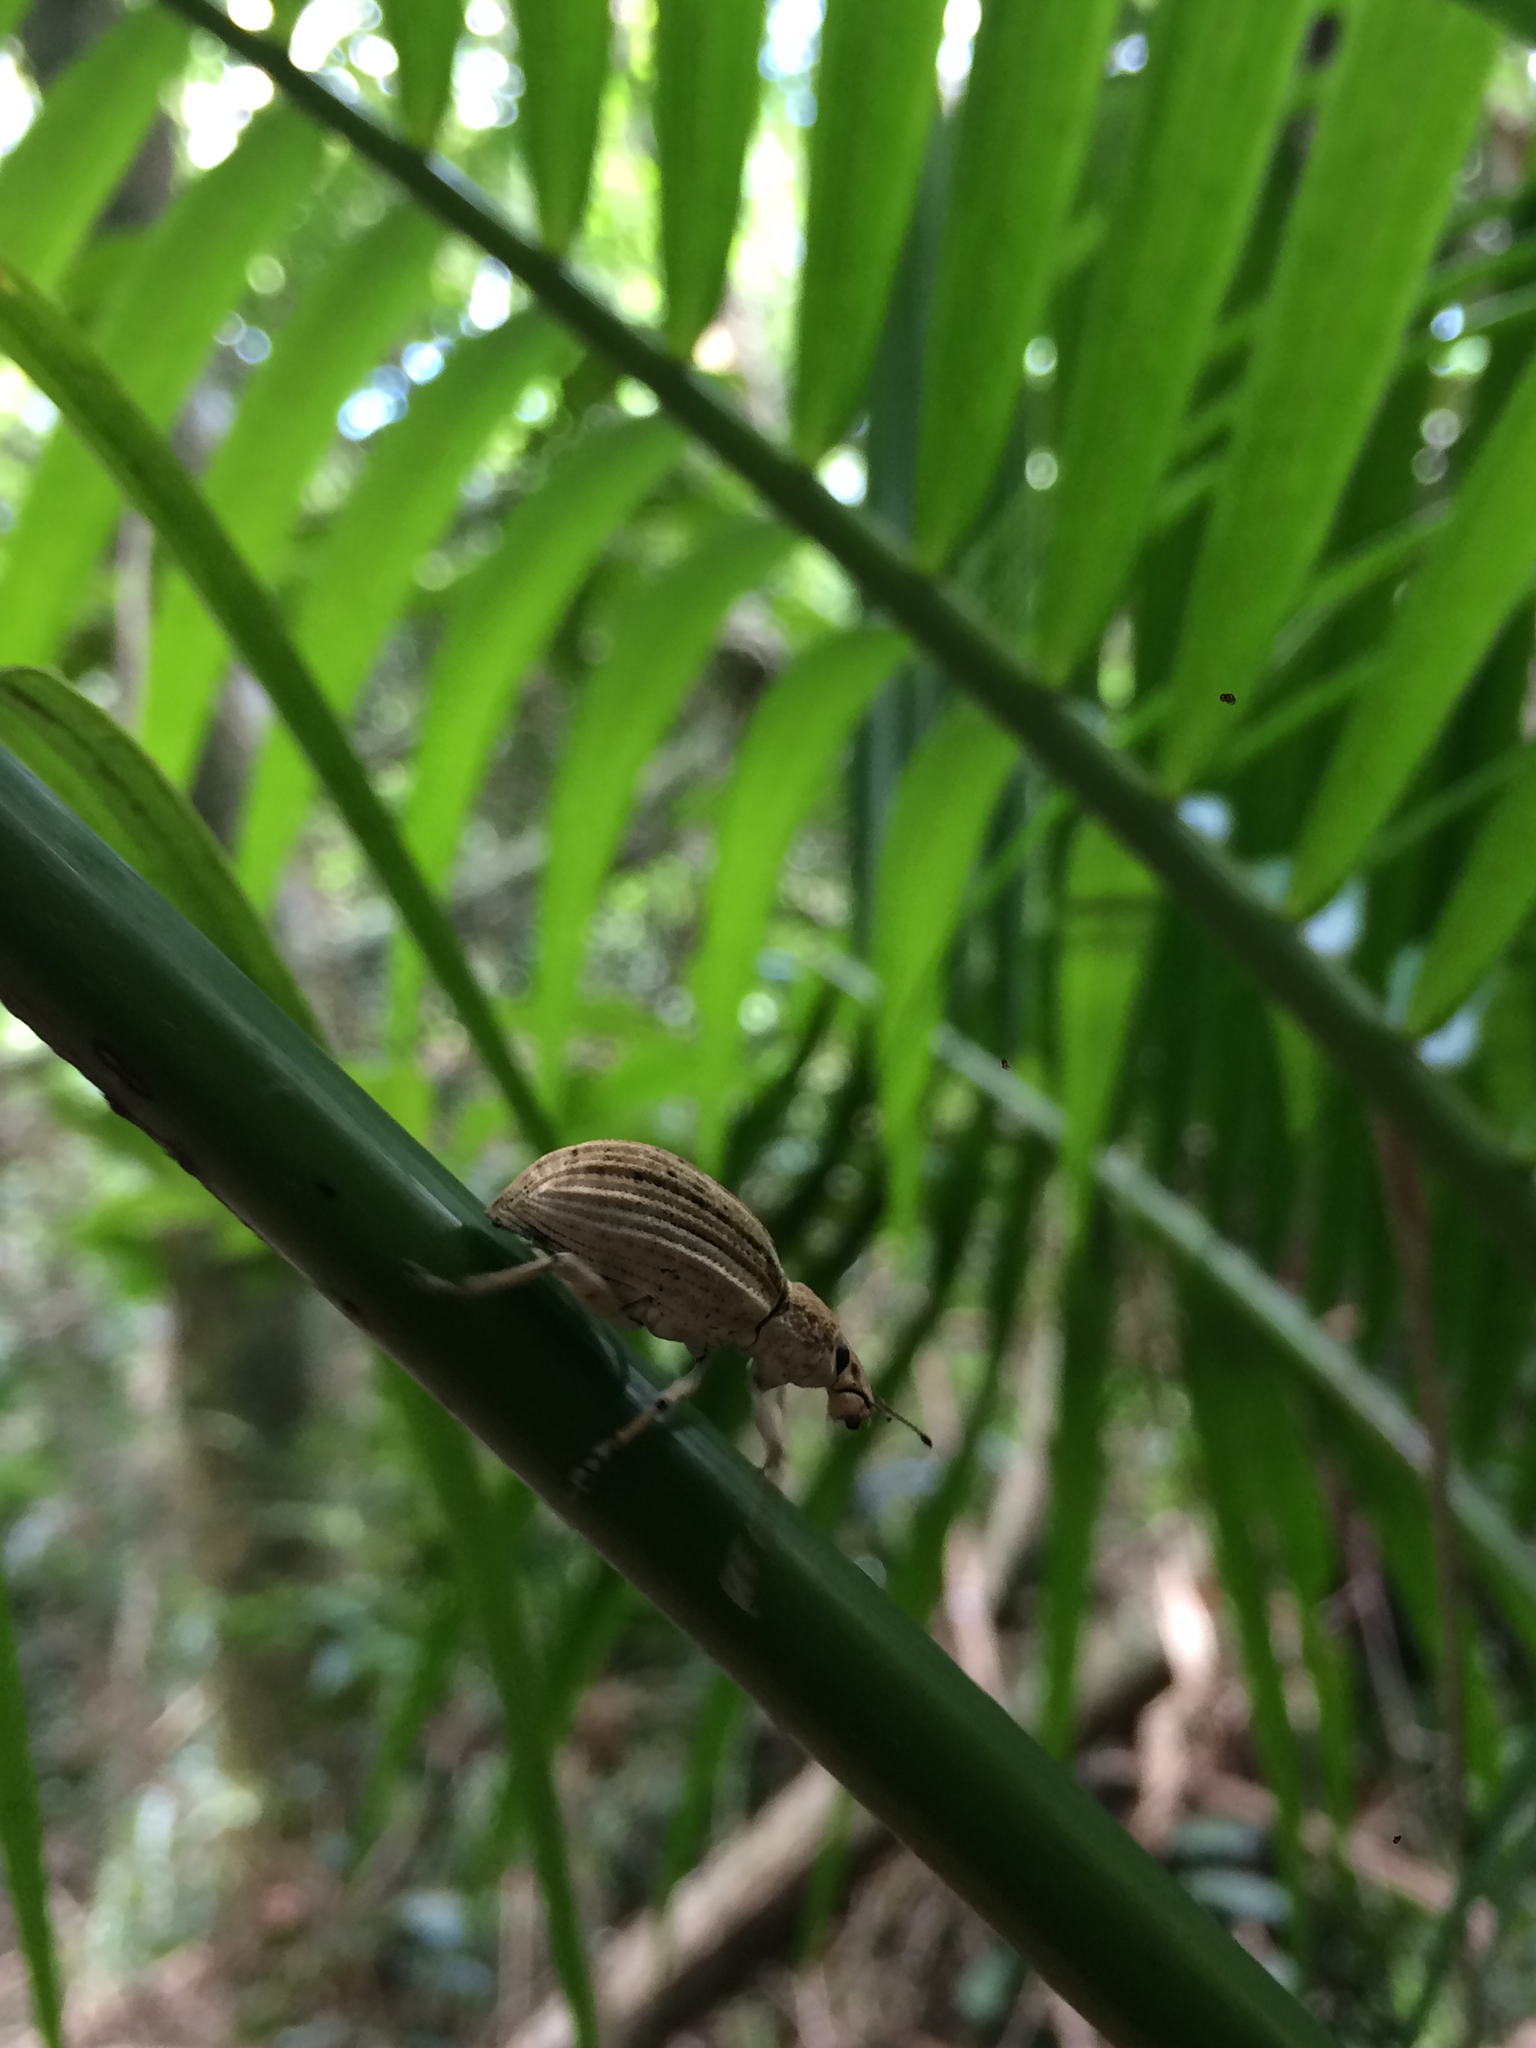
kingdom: Animalia
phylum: Arthropoda
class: Insecta
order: Coleoptera
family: Curculionidae
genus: Rhigus
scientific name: Rhigus faldermanni
